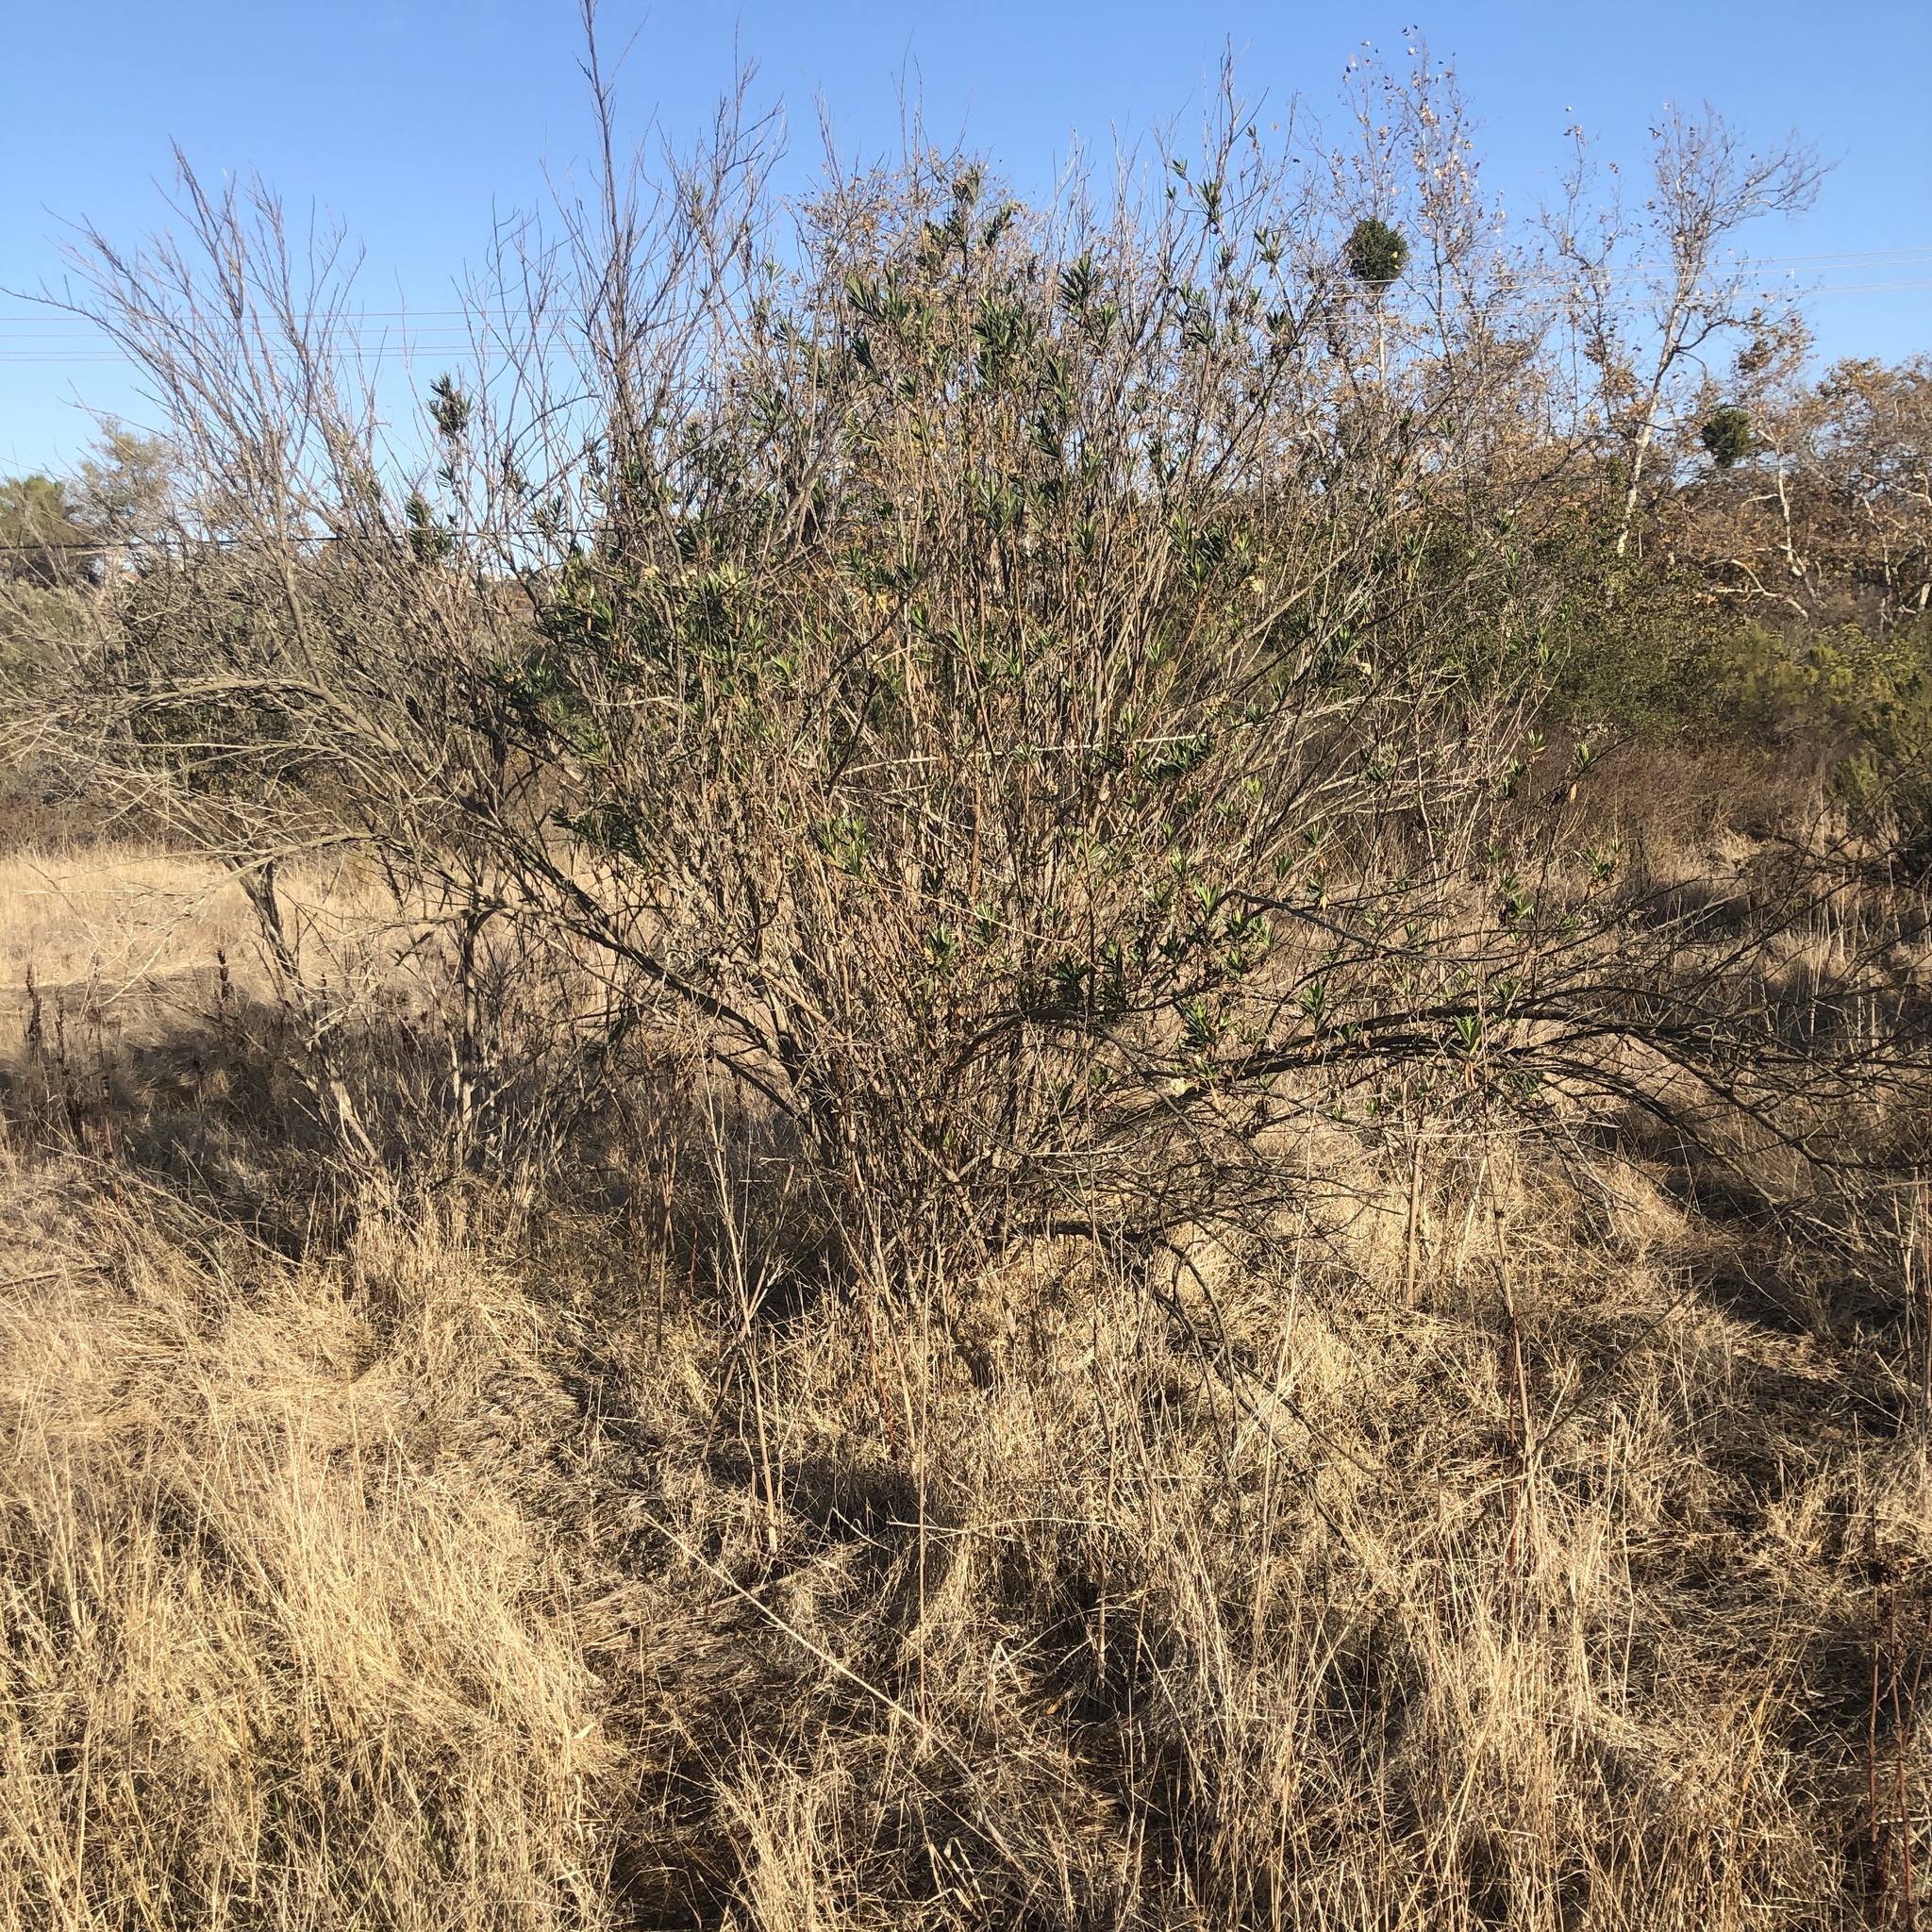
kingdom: Plantae
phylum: Tracheophyta
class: Magnoliopsida
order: Asterales
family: Asteraceae
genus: Baccharis
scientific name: Baccharis salicifolia
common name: Sticky baccharis
